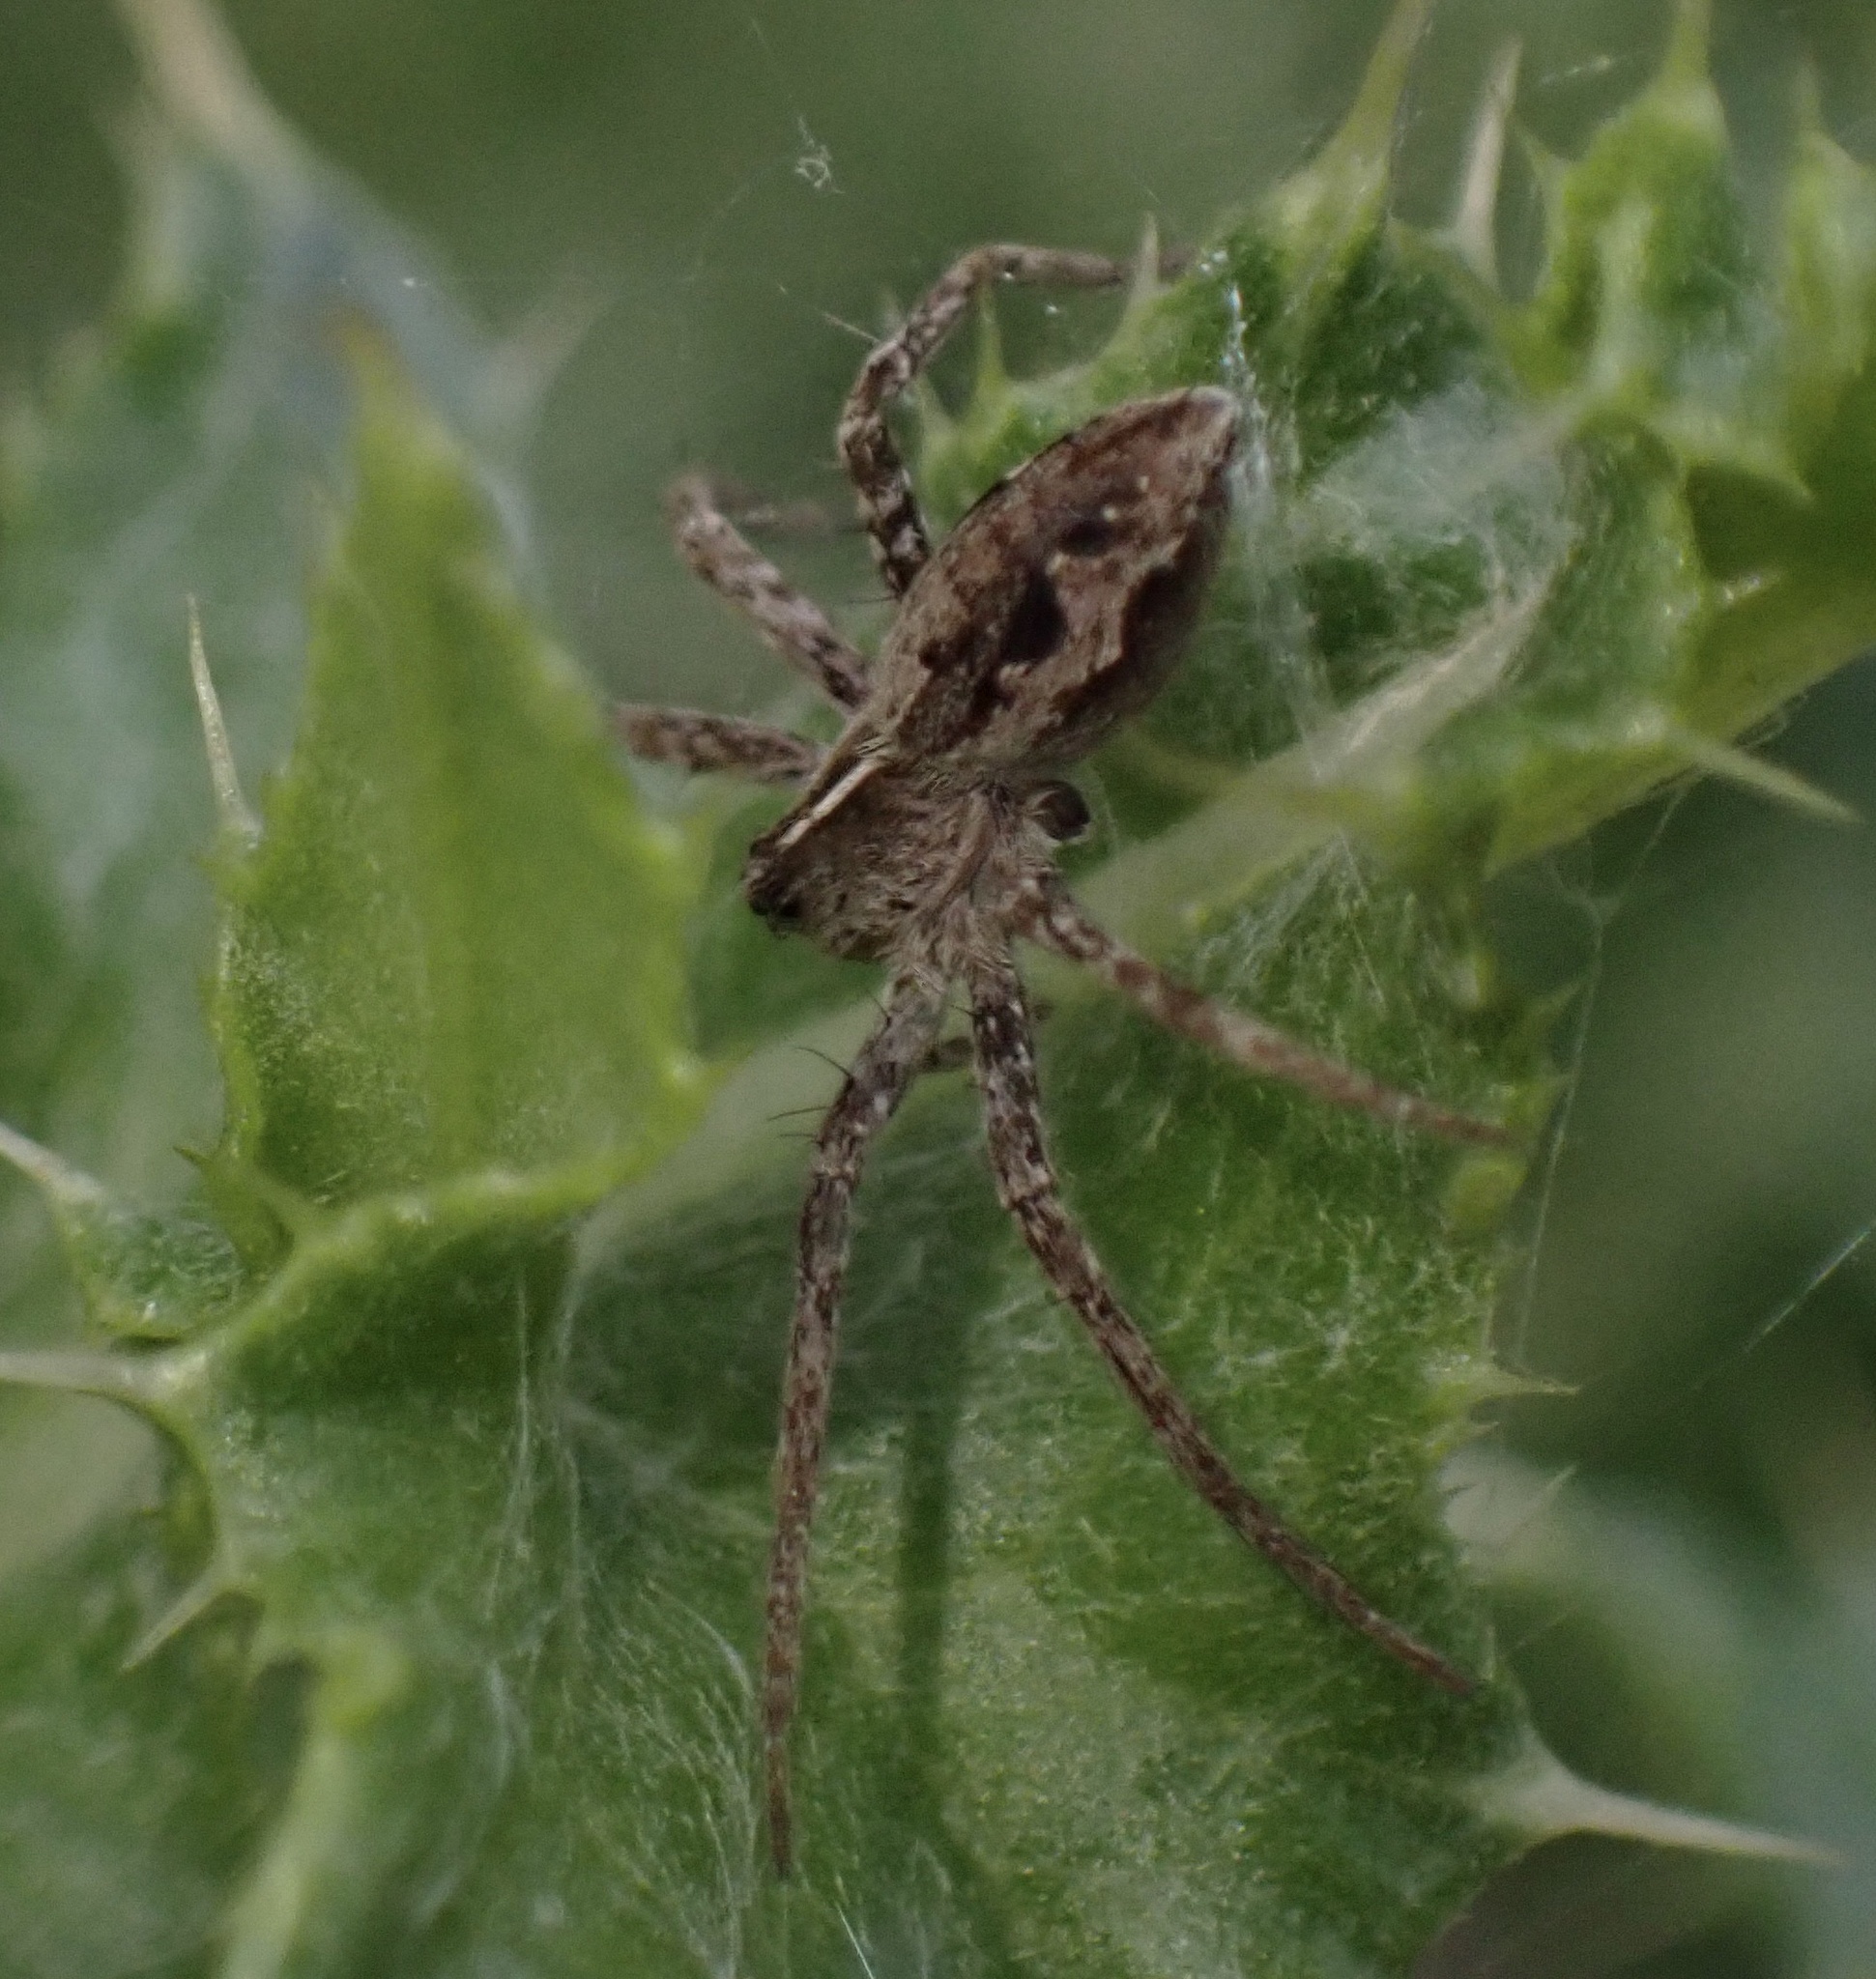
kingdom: Animalia
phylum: Arthropoda
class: Arachnida
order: Araneae
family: Pisauridae
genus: Pisaura
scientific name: Pisaura mirabilis
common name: Tent spider
